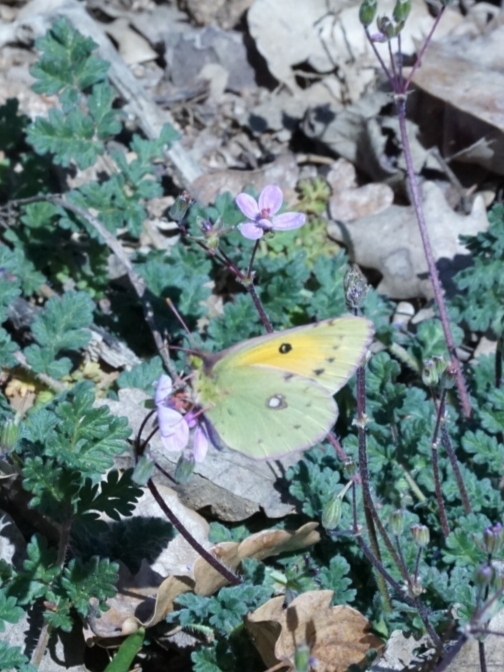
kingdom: Animalia
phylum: Arthropoda
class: Insecta
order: Lepidoptera
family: Pieridae
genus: Colias
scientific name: Colias croceus
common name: Clouded yellow
